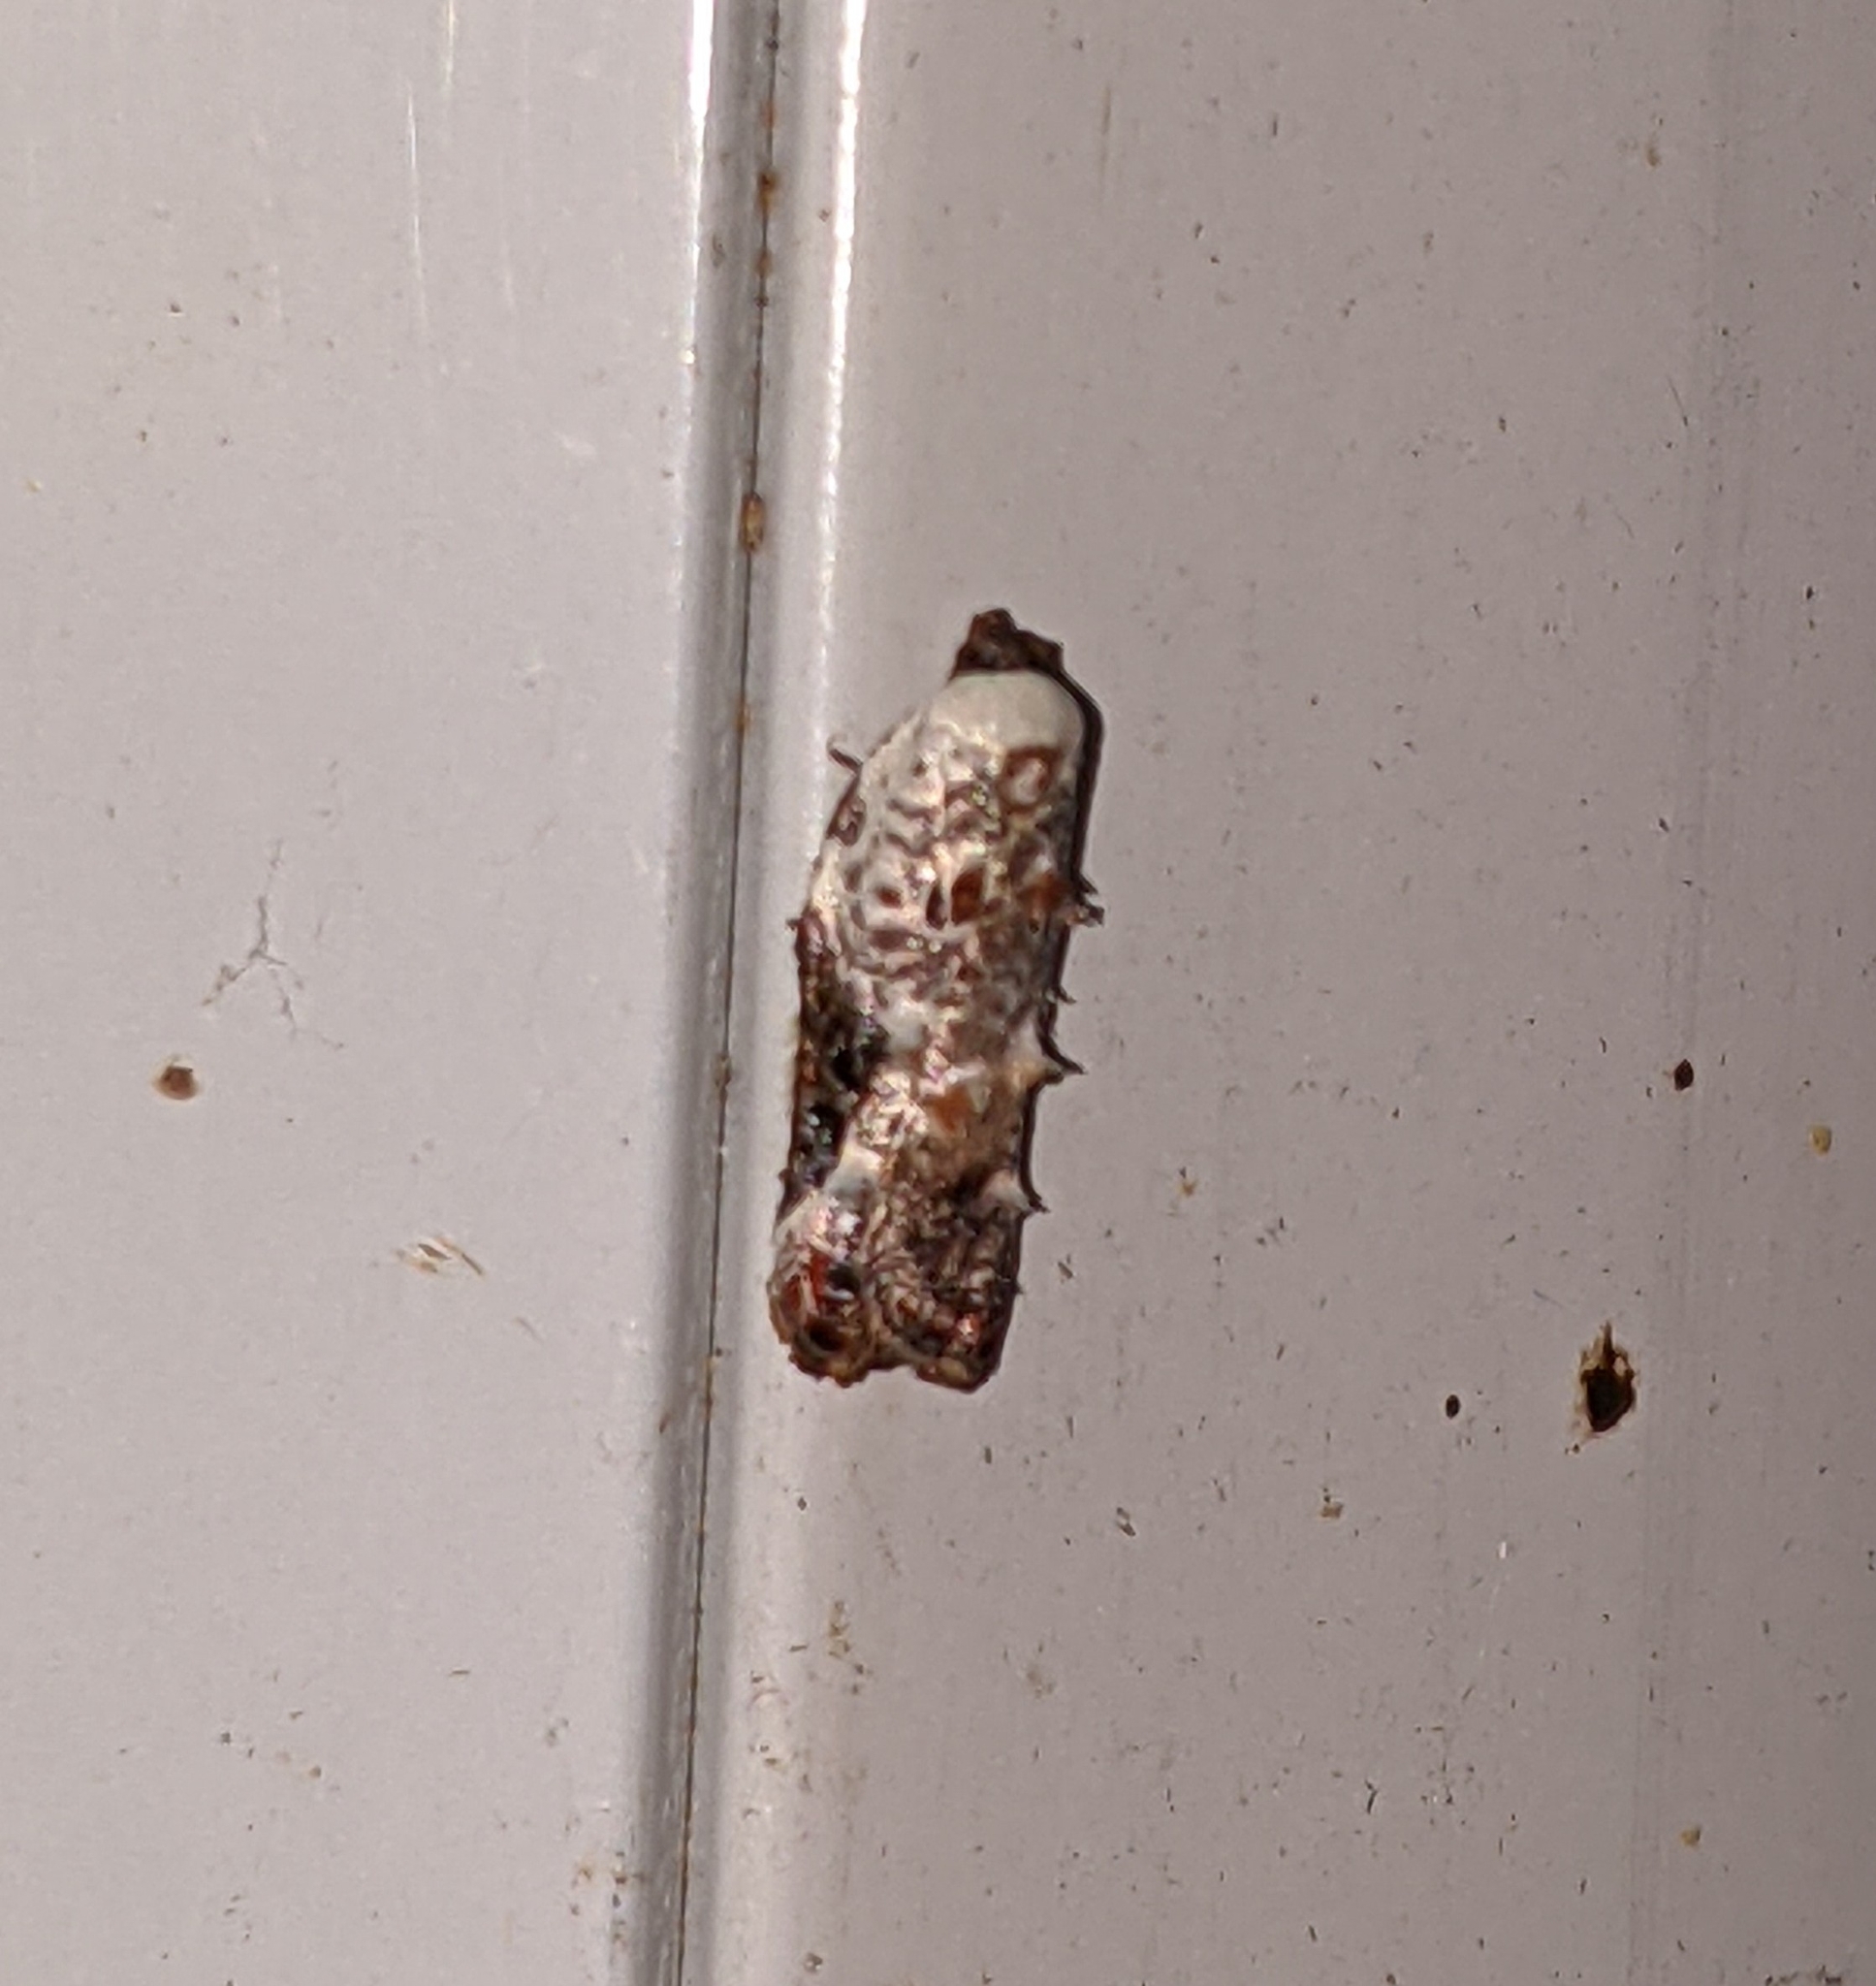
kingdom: Animalia
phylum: Arthropoda
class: Insecta
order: Lepidoptera
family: Tortricidae
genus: Acleris
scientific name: Acleris nivisellana
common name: Snowy-shouldered acleris moth
